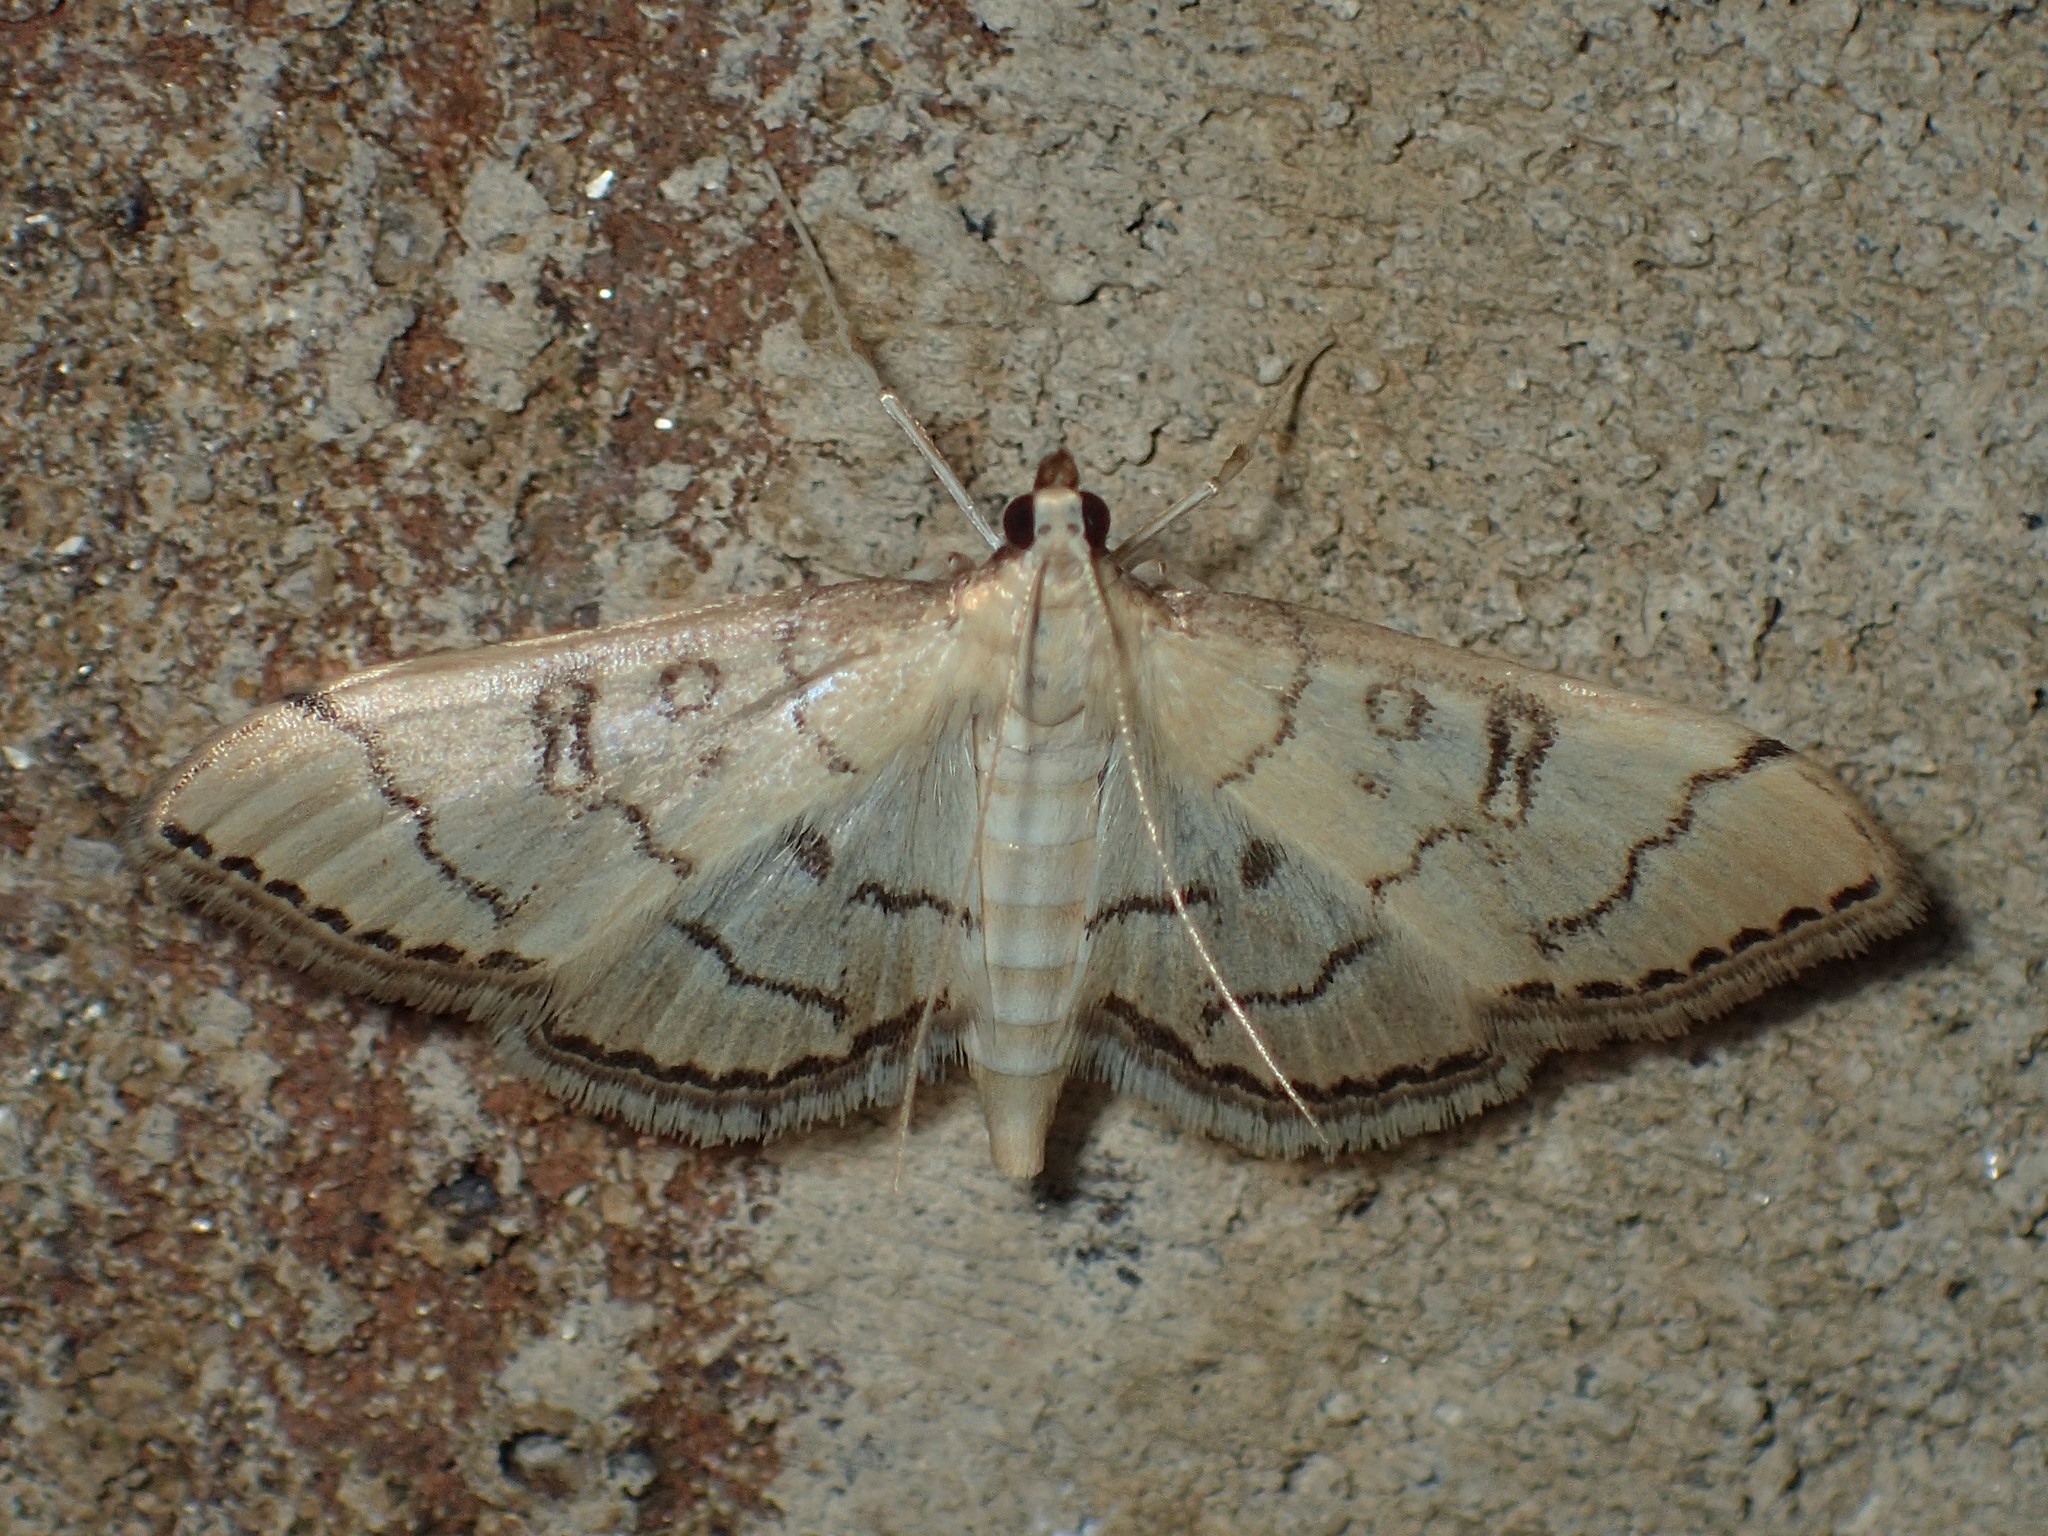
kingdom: Animalia
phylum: Arthropoda
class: Insecta
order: Lepidoptera
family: Crambidae
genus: Lamprosema
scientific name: Lamprosema Blepharomastix ranalis
